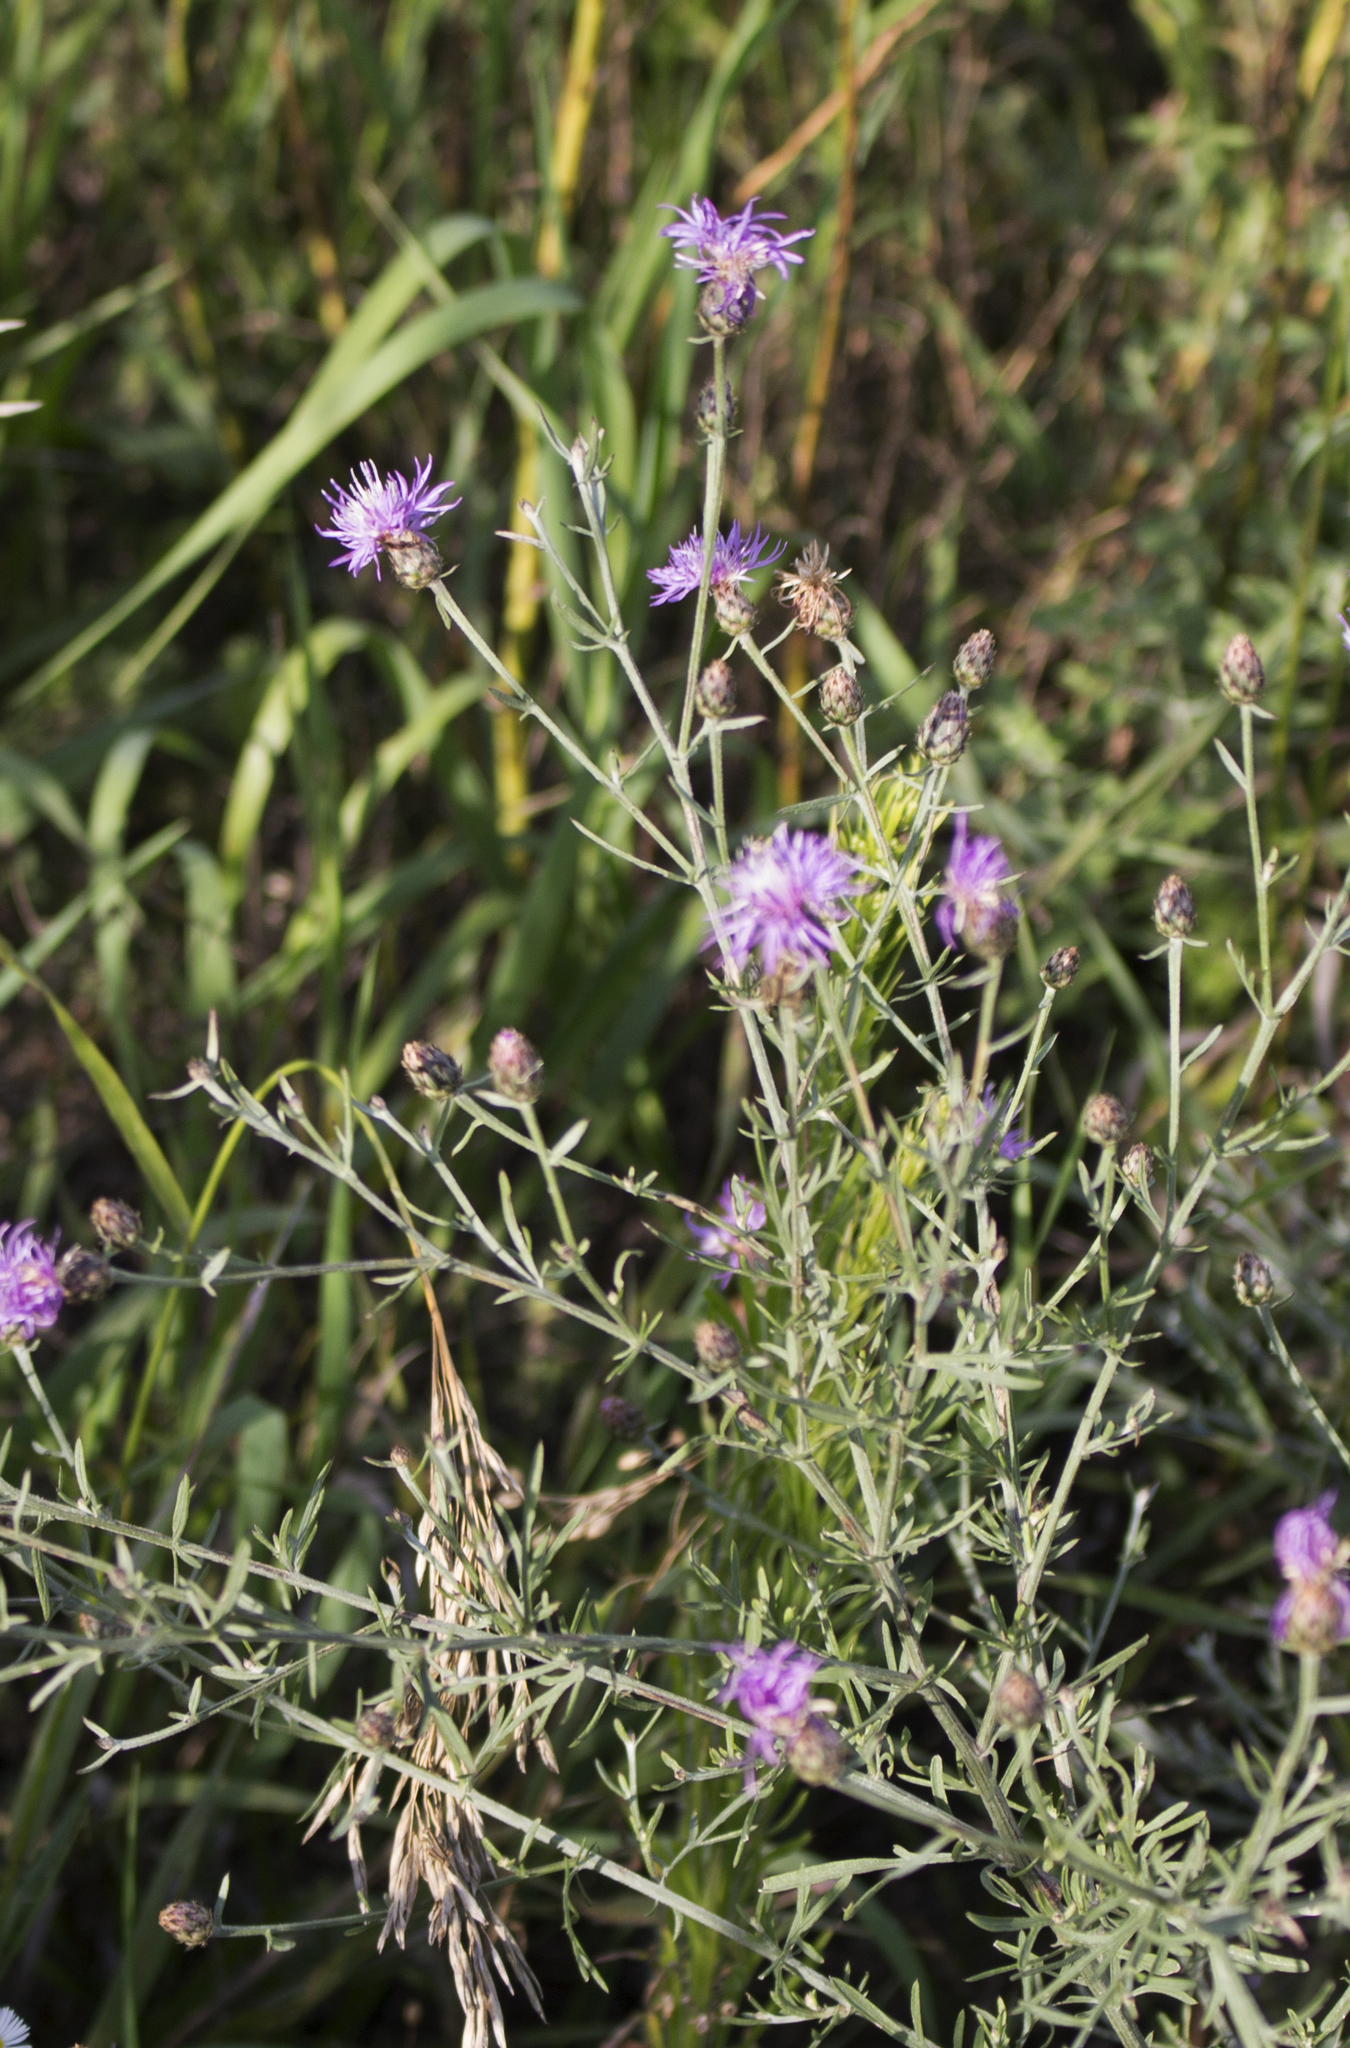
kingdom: Plantae
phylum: Tracheophyta
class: Magnoliopsida
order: Asterales
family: Asteraceae
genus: Centaurea
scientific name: Centaurea stoebe
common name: Spotted knapweed
